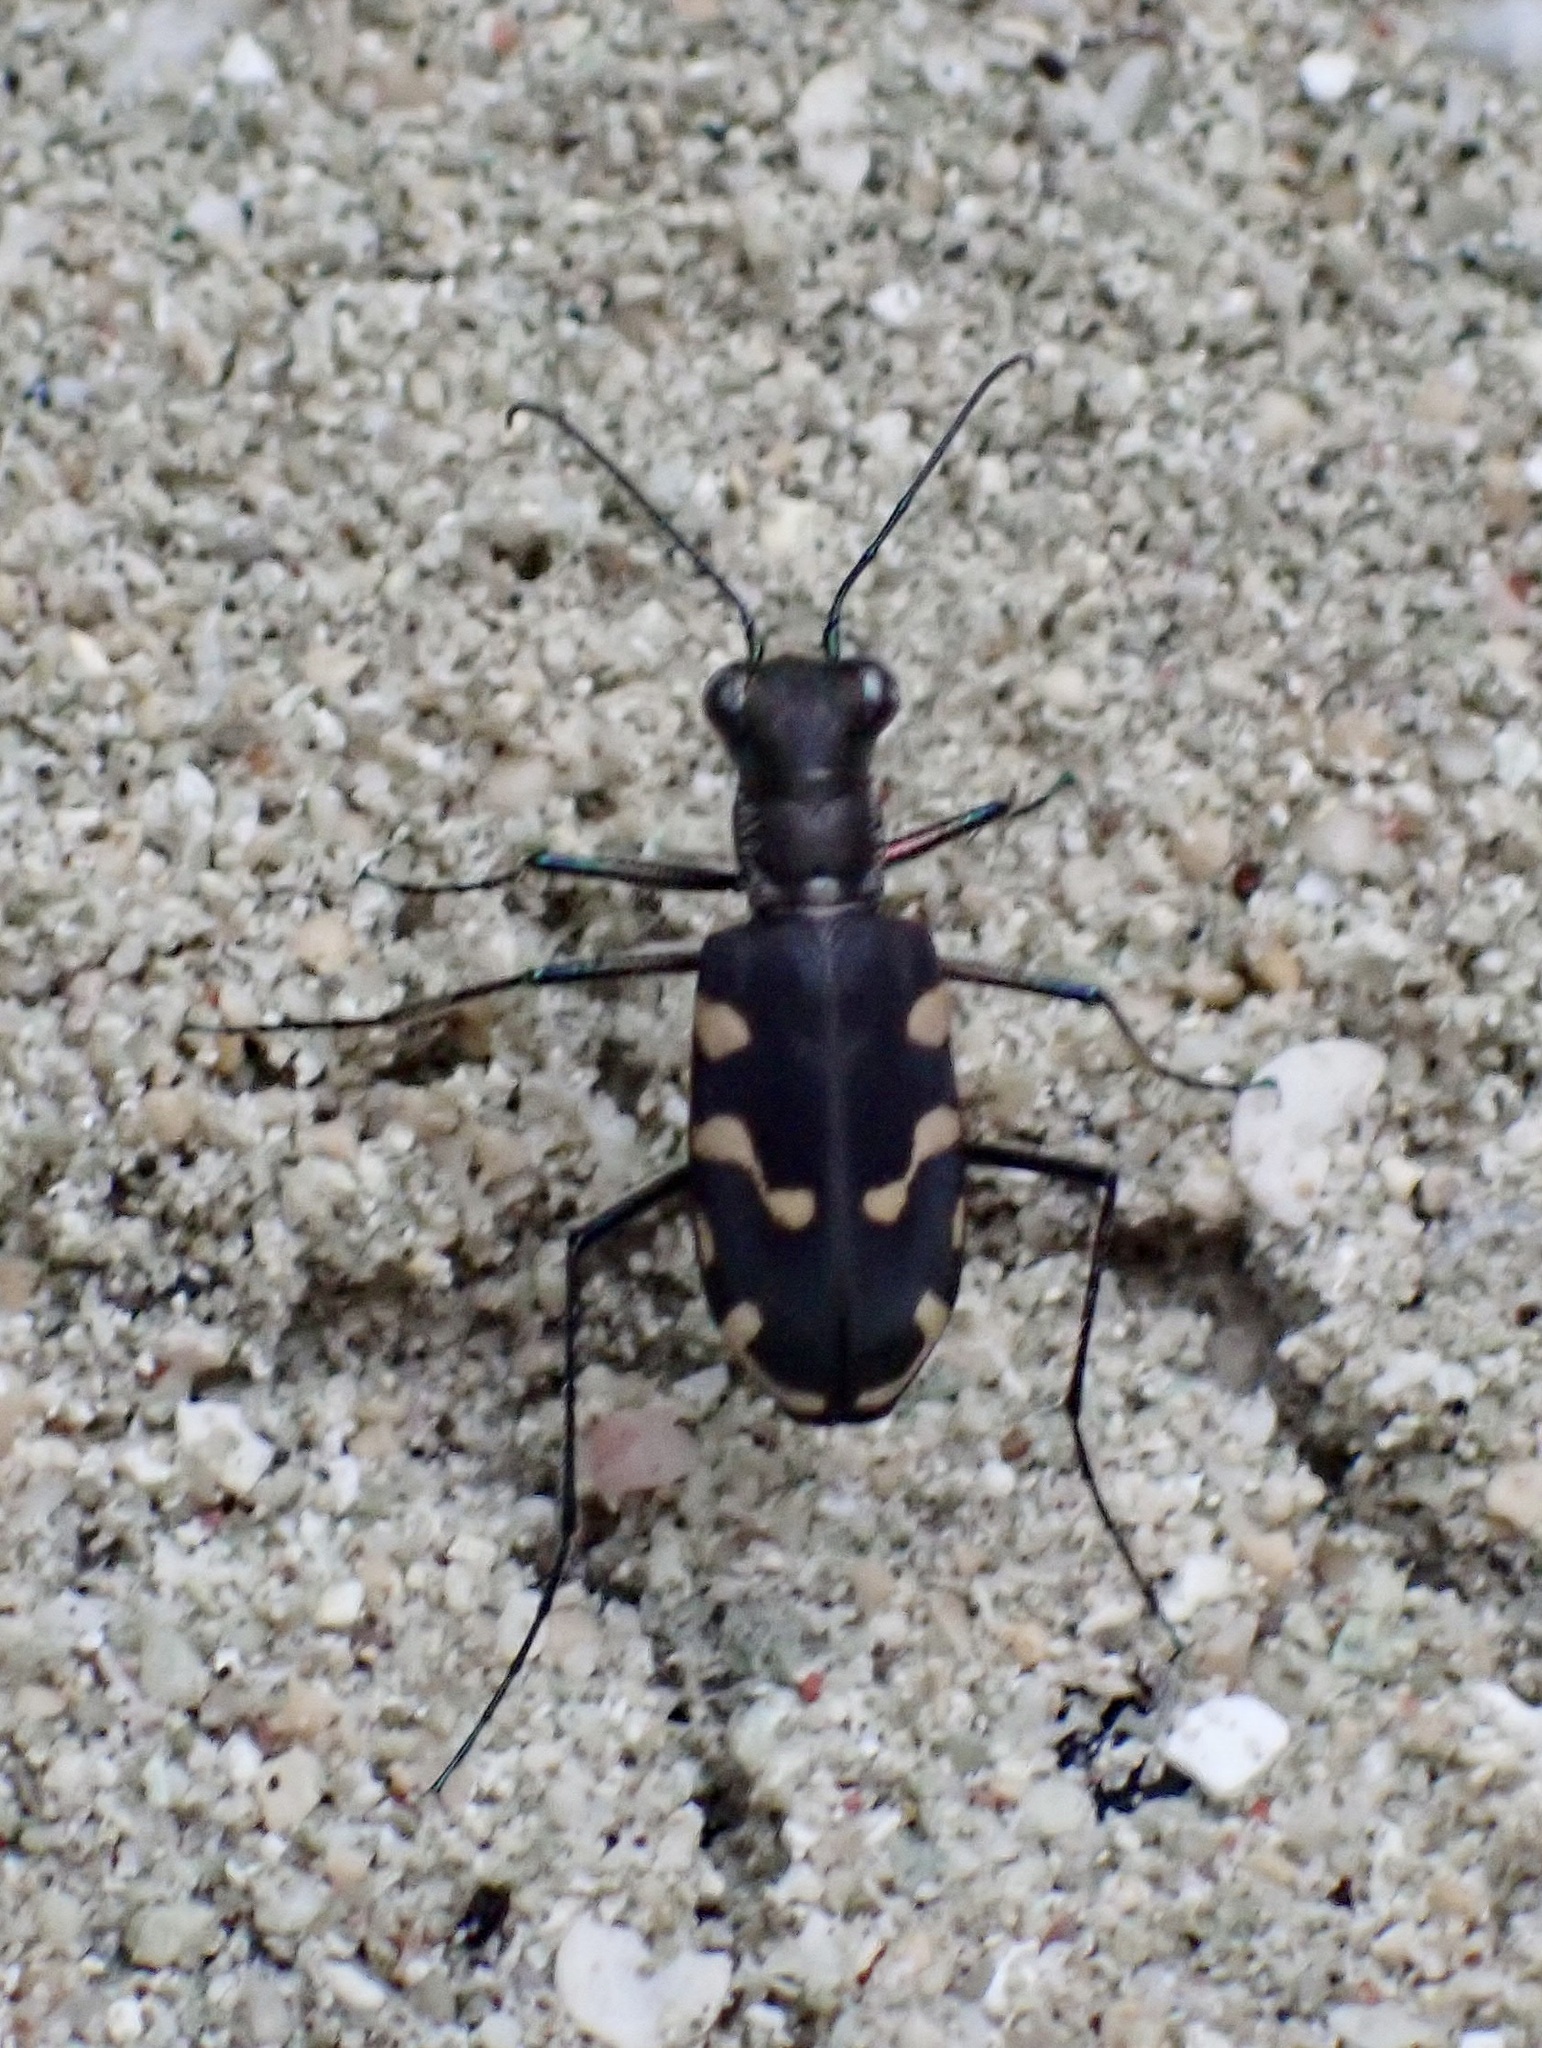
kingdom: Animalia
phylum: Arthropoda
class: Insecta
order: Coleoptera
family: Carabidae
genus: Cicindela
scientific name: Cicindela decemguttata
